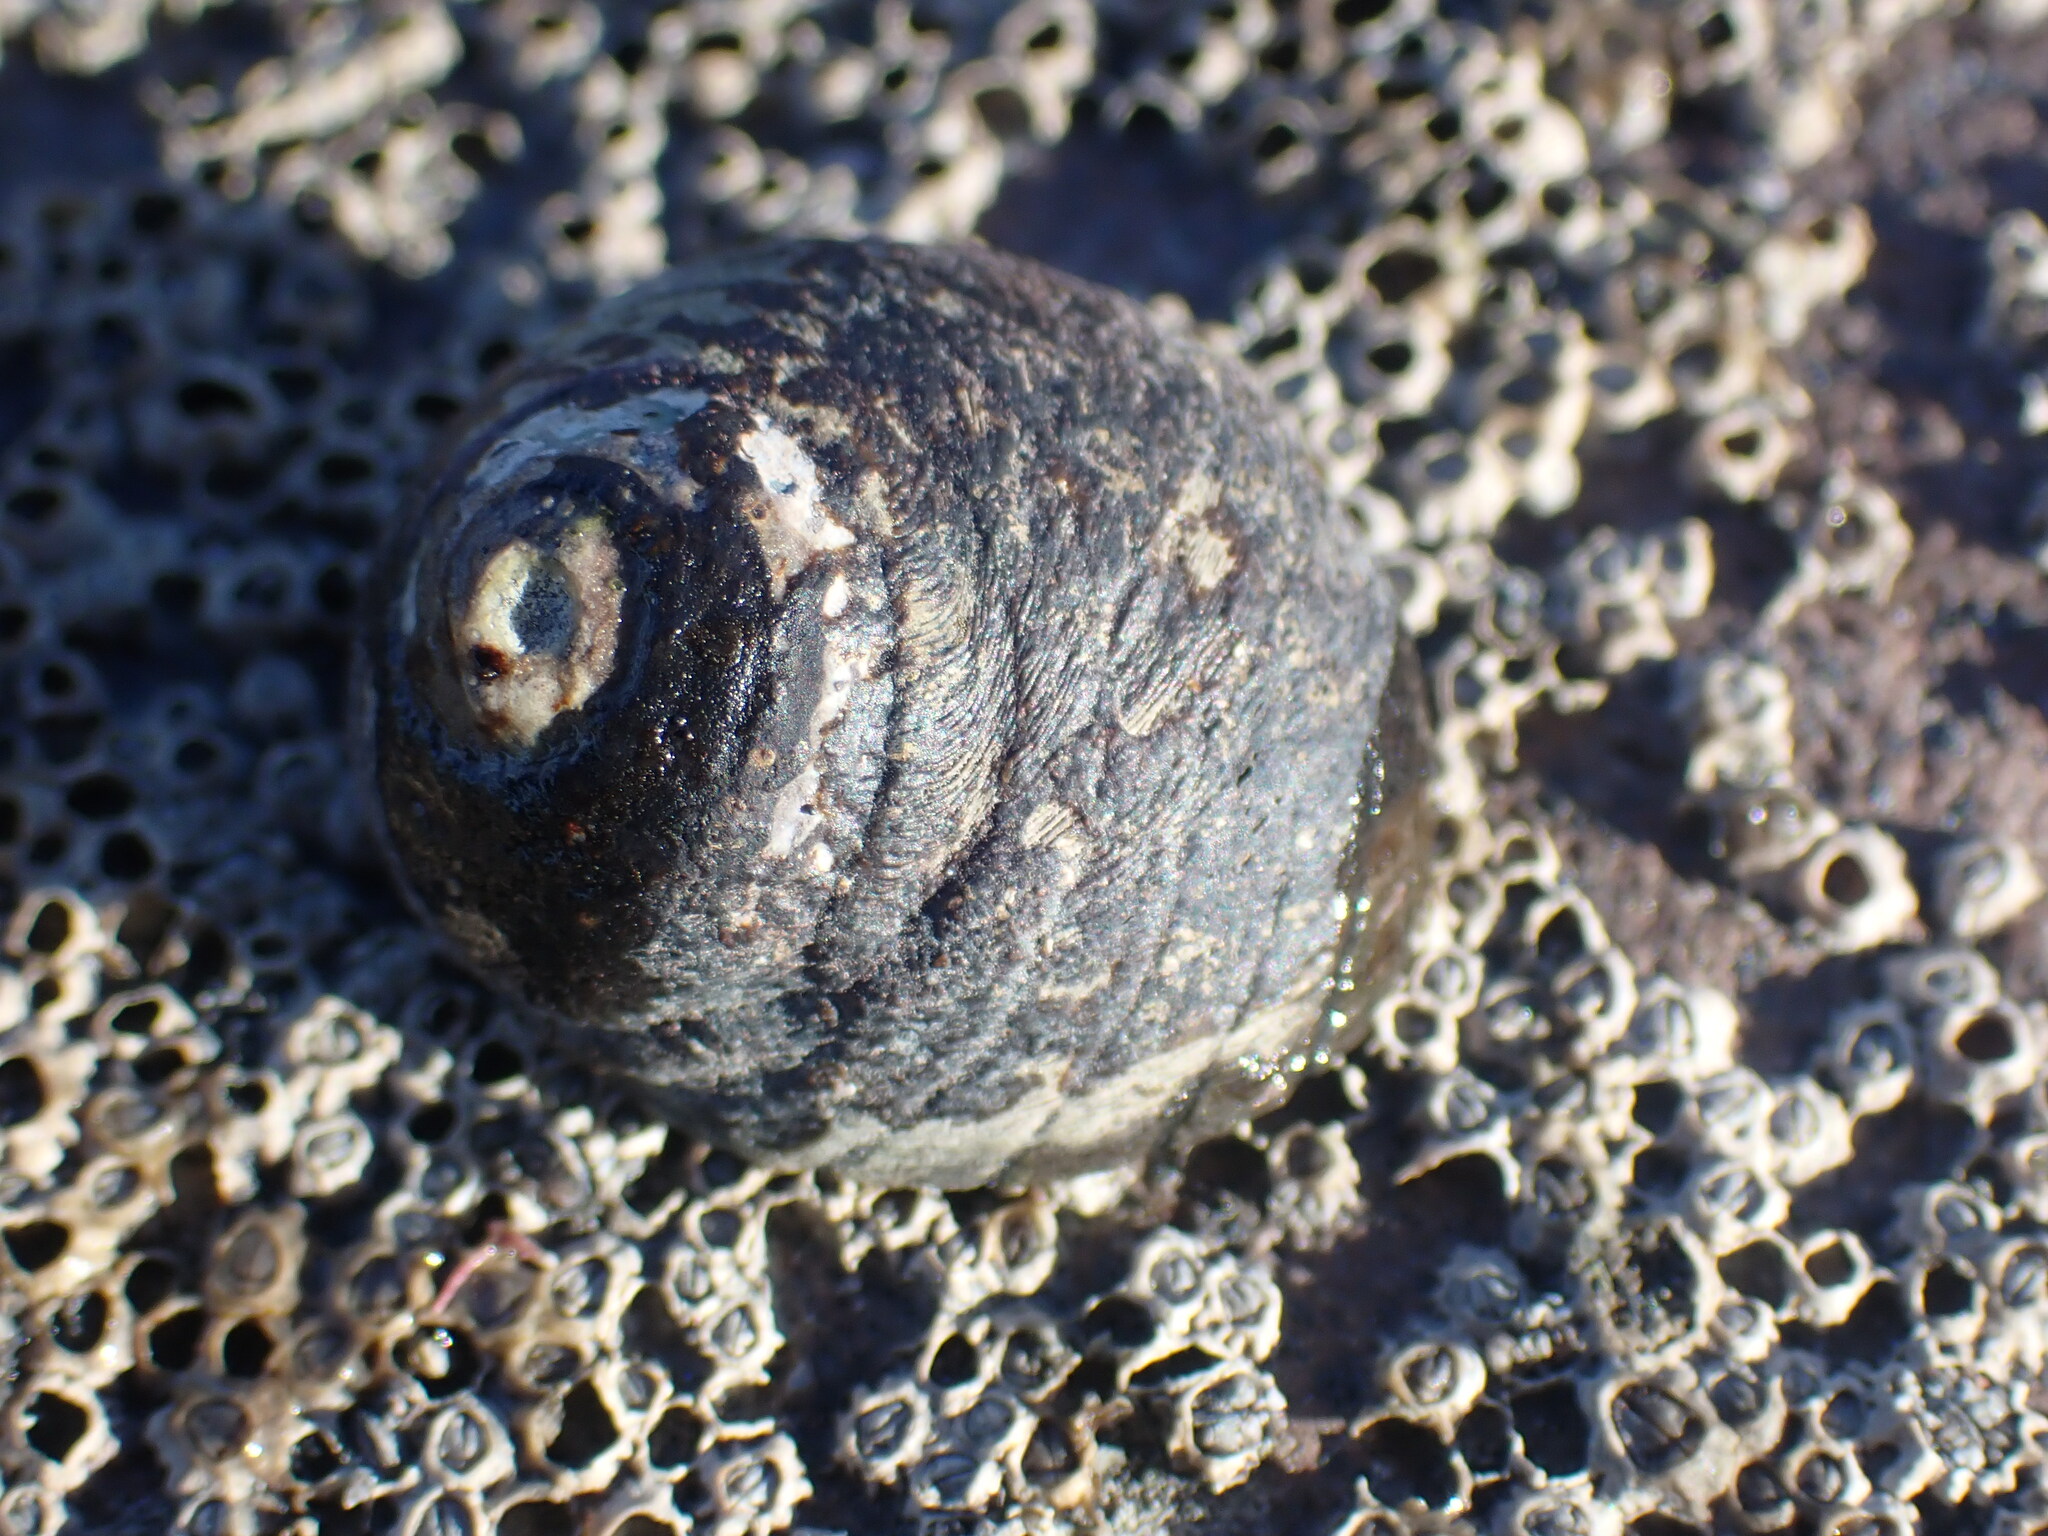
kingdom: Animalia
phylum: Mollusca
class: Gastropoda
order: Trochida
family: Trochidae
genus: Diloma
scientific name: Diloma aethiops
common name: Scorched monodont
